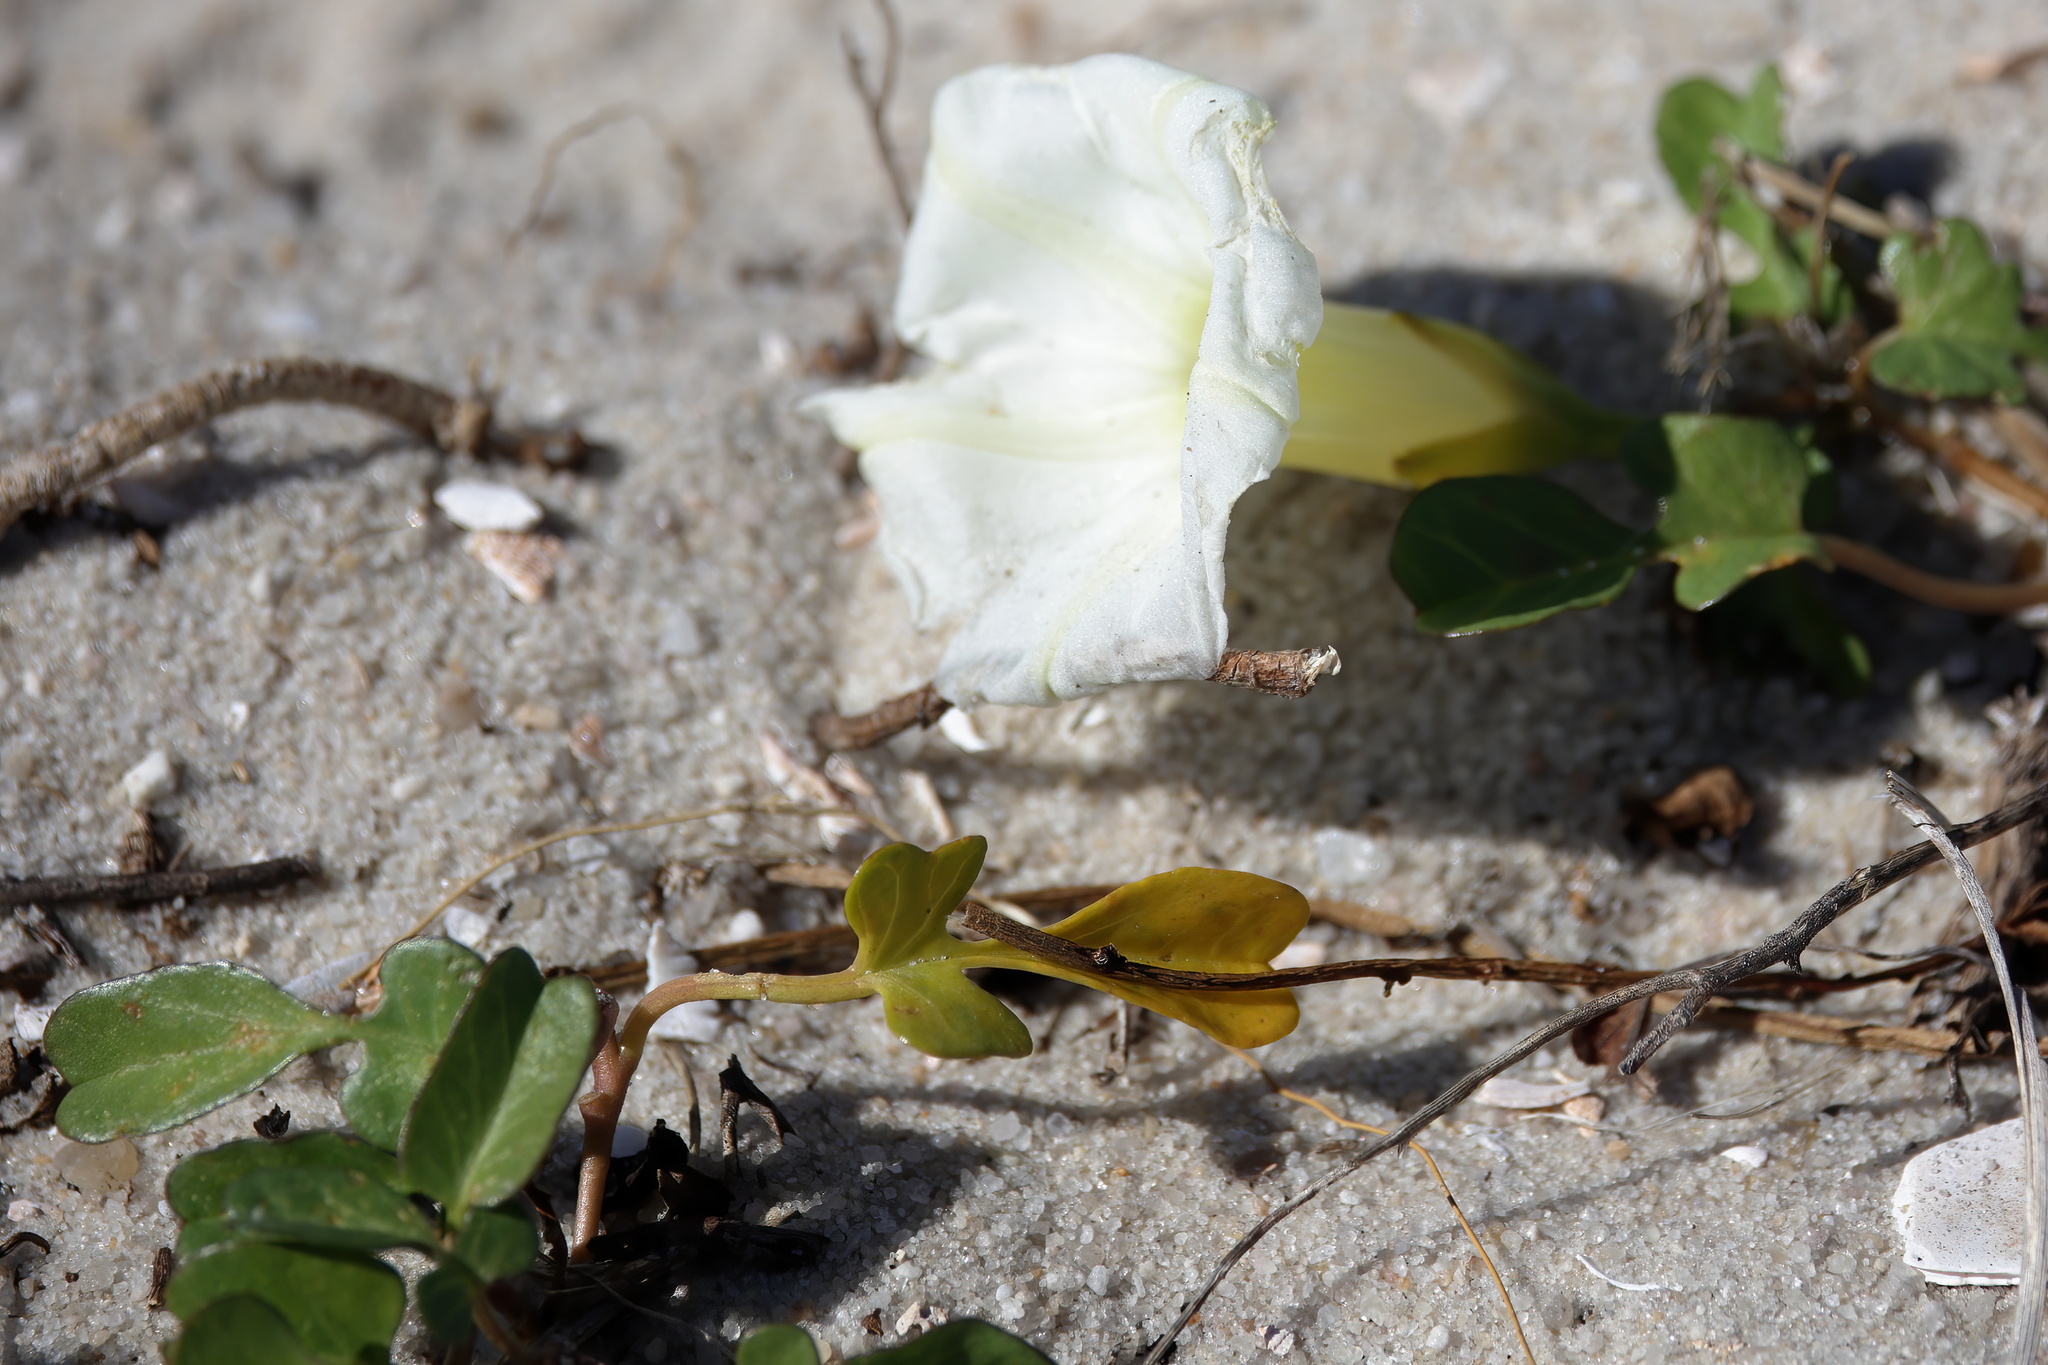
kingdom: Plantae
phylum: Tracheophyta
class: Magnoliopsida
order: Solanales
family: Convolvulaceae
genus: Ipomoea
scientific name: Ipomoea imperati
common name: Fiddle-leaf morning-glory
